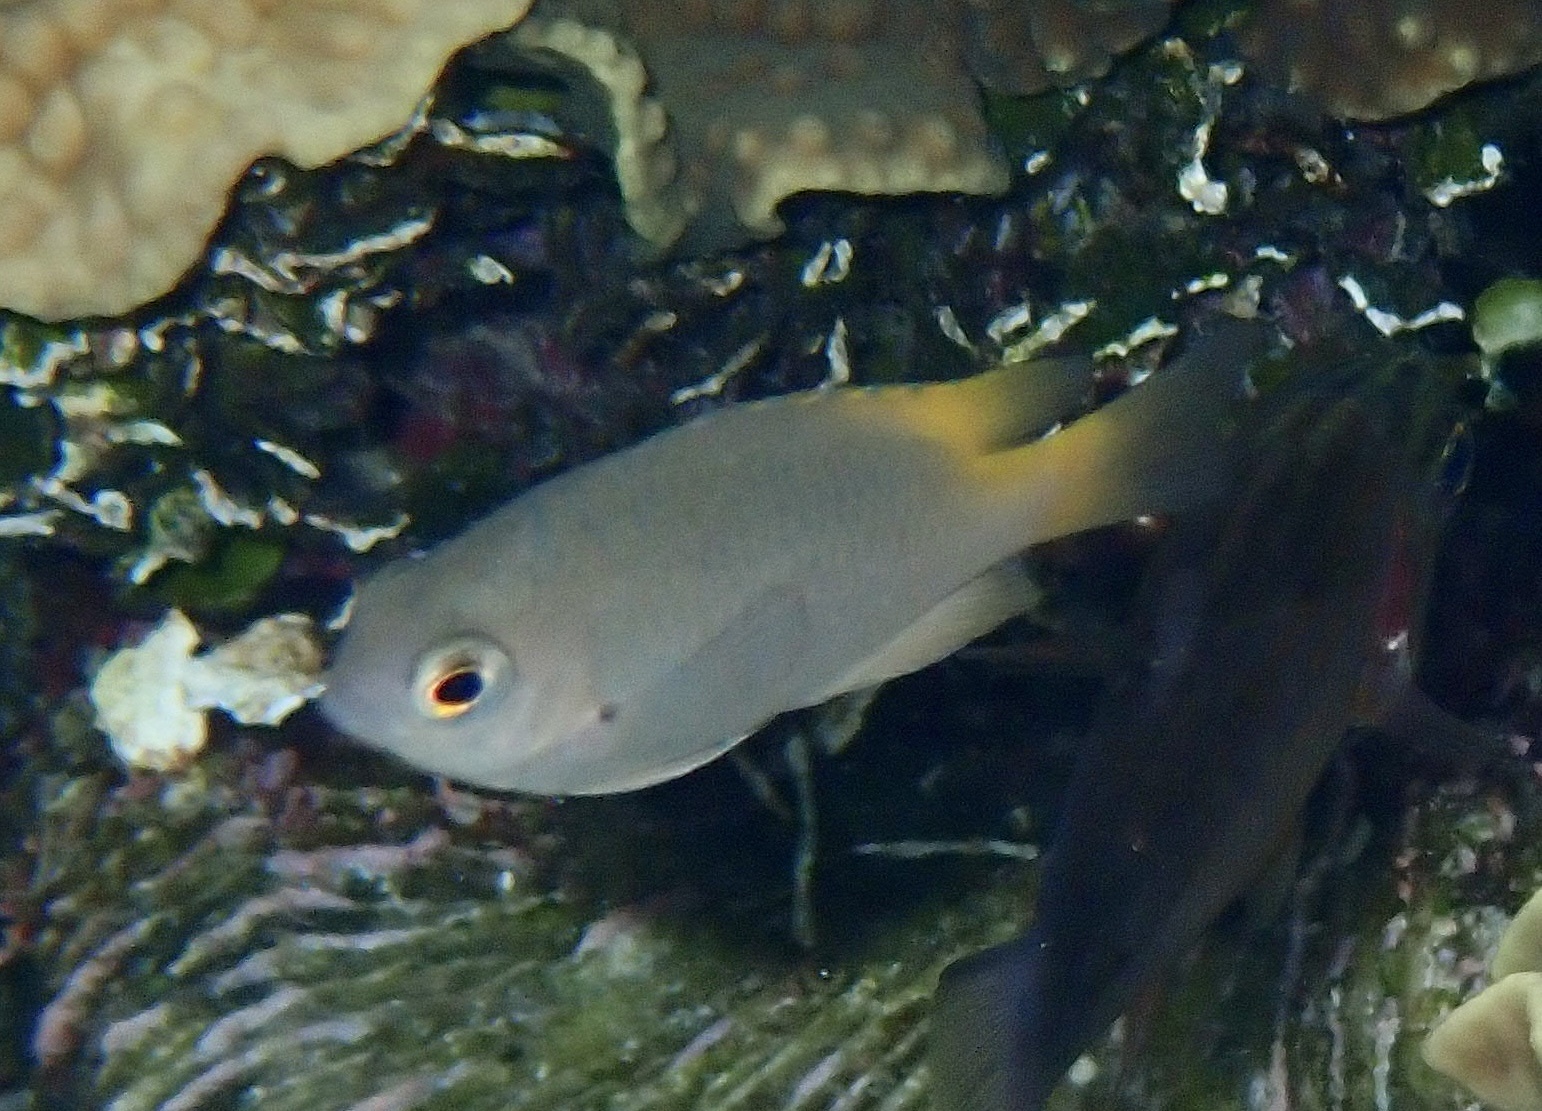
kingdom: Animalia
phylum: Chordata
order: Perciformes
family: Pomacentridae
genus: Pomacentrus
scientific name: Pomacentrus lepidogenys
